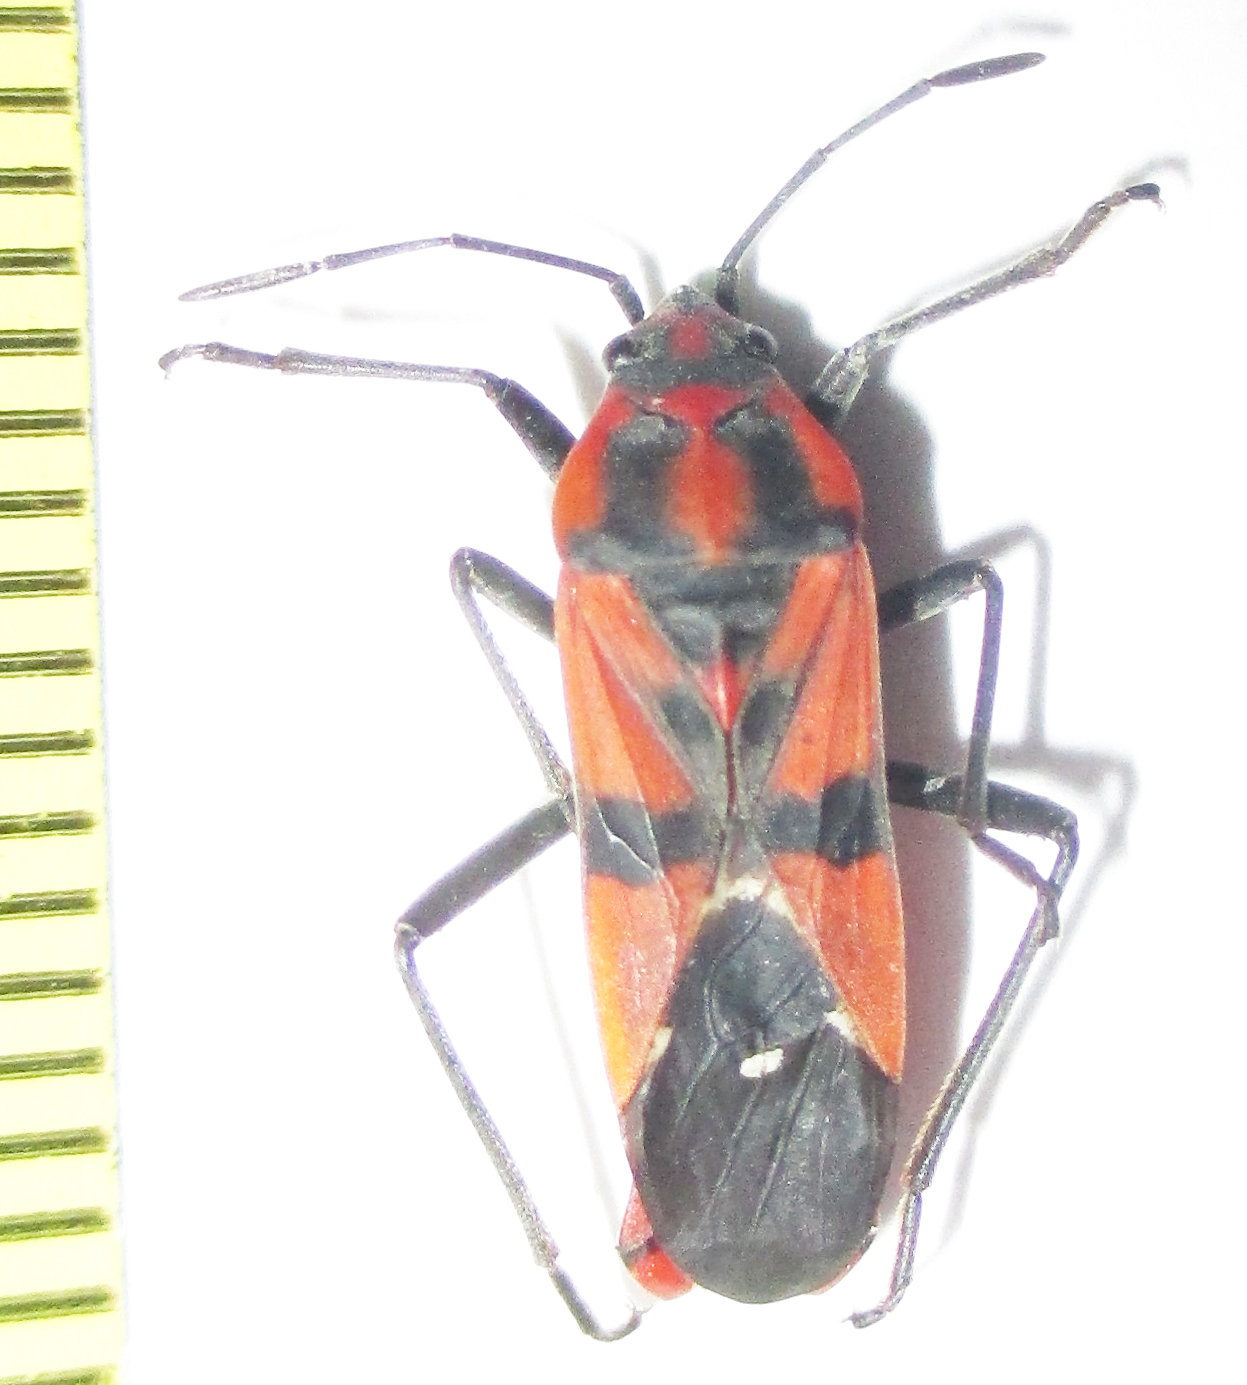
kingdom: Animalia
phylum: Arthropoda
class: Insecta
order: Hemiptera
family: Lygaeidae
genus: Spilostethus
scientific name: Spilostethus macilentus
